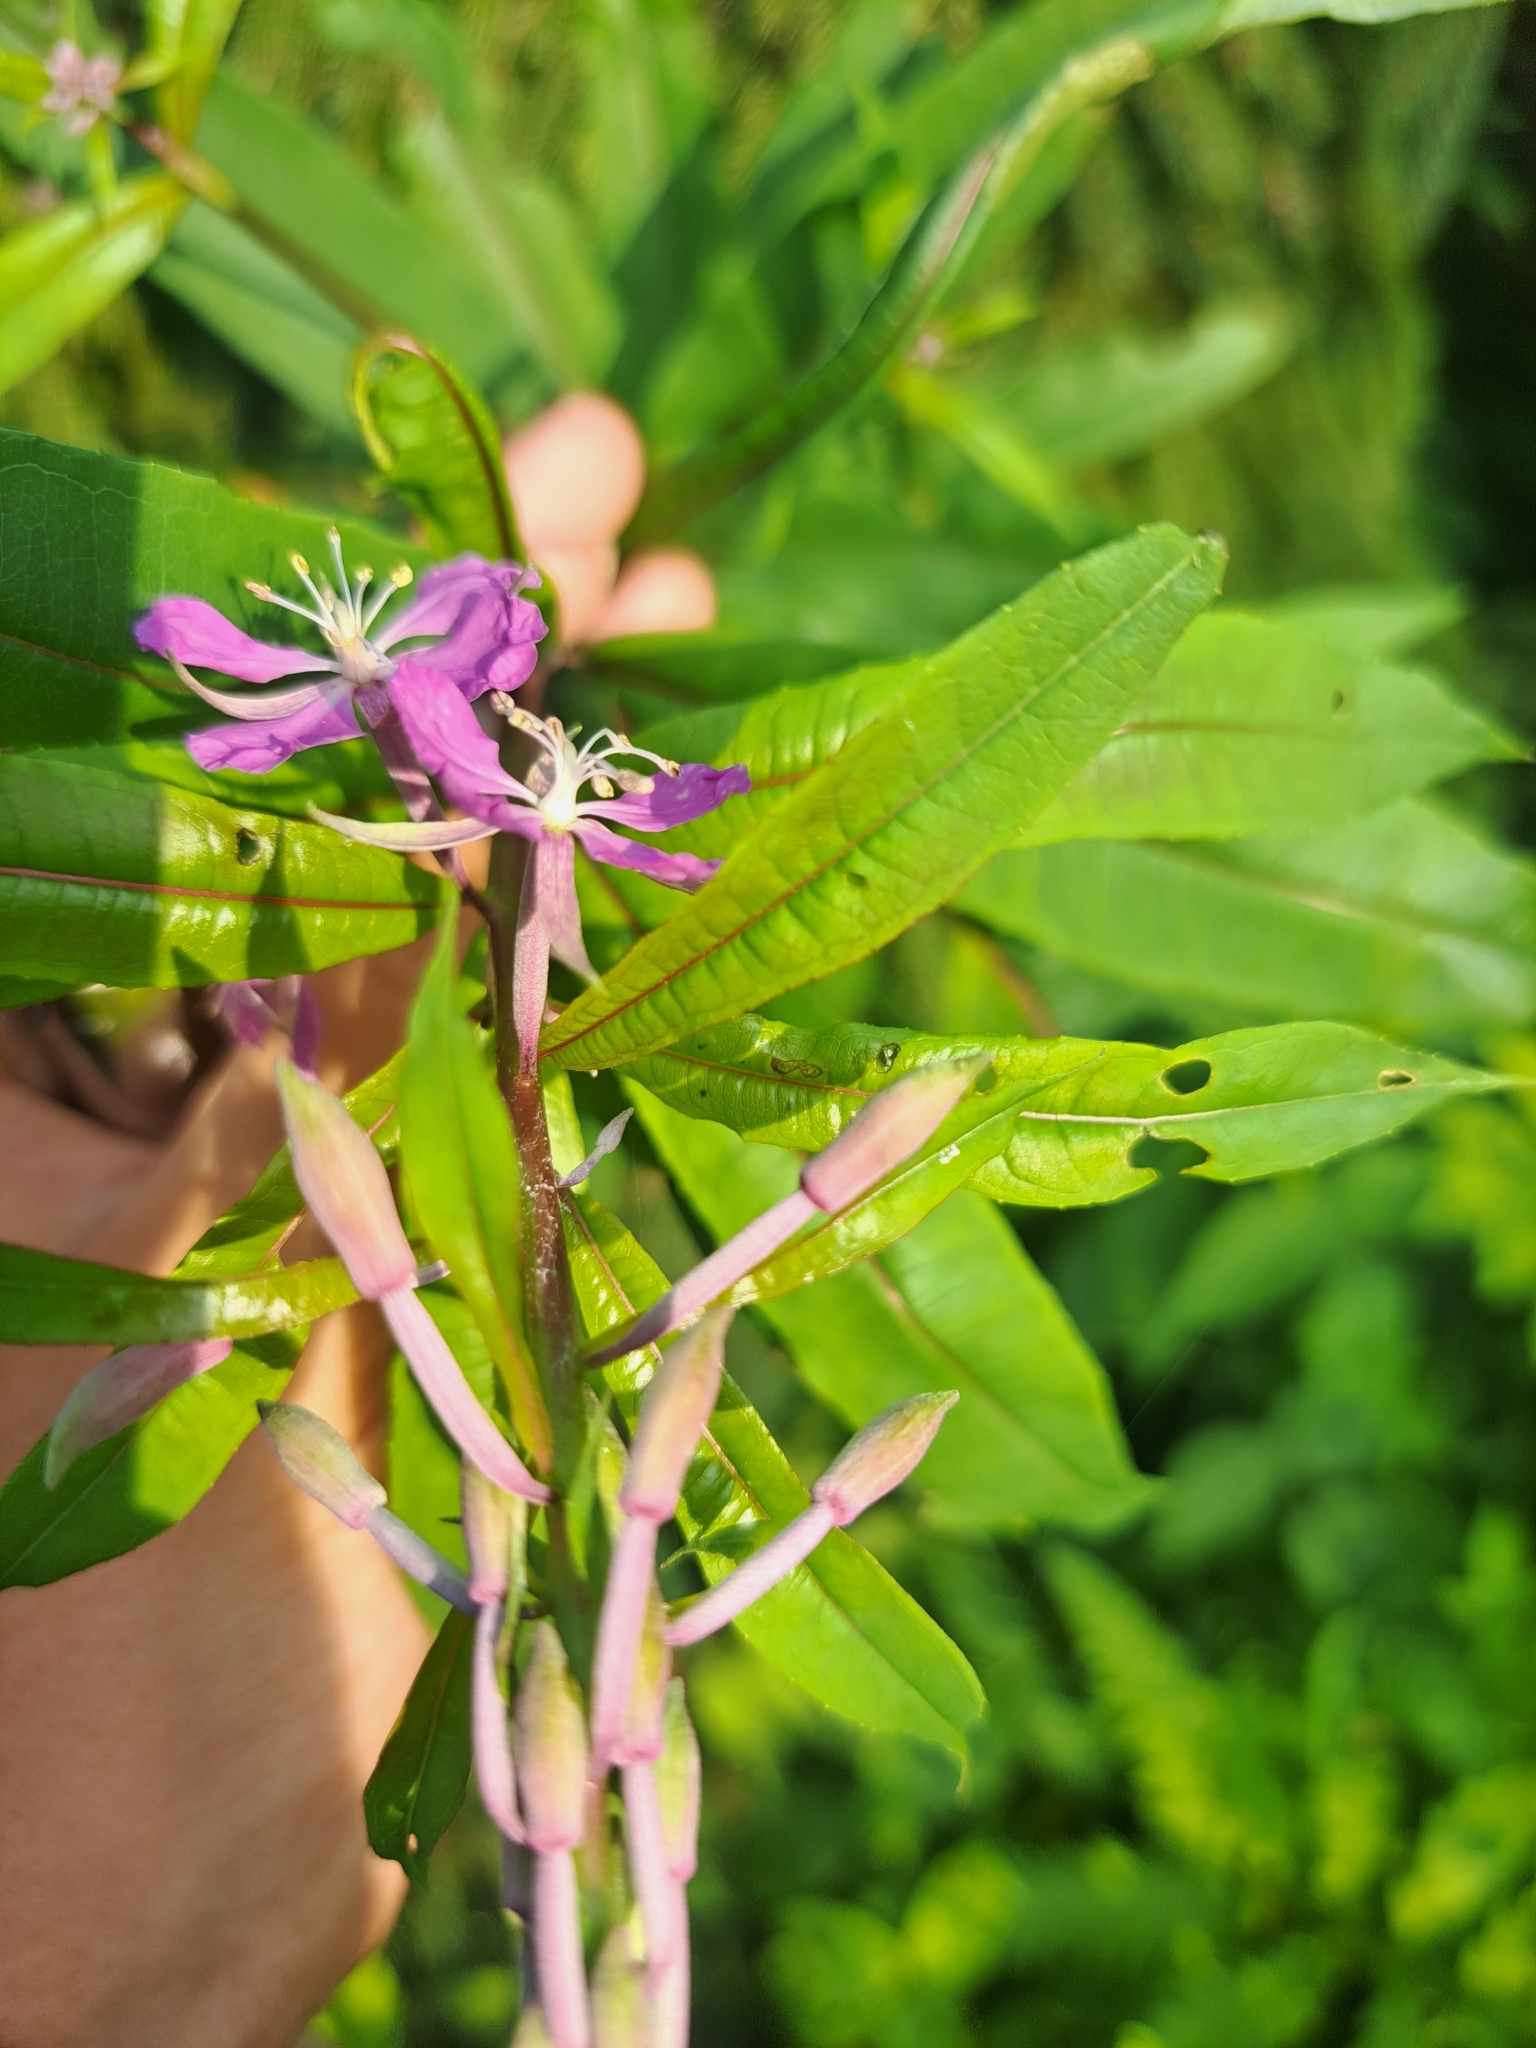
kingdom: Plantae
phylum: Tracheophyta
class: Magnoliopsida
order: Myrtales
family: Onagraceae
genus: Chamaenerion
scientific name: Chamaenerion angustifolium
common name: Fireweed
